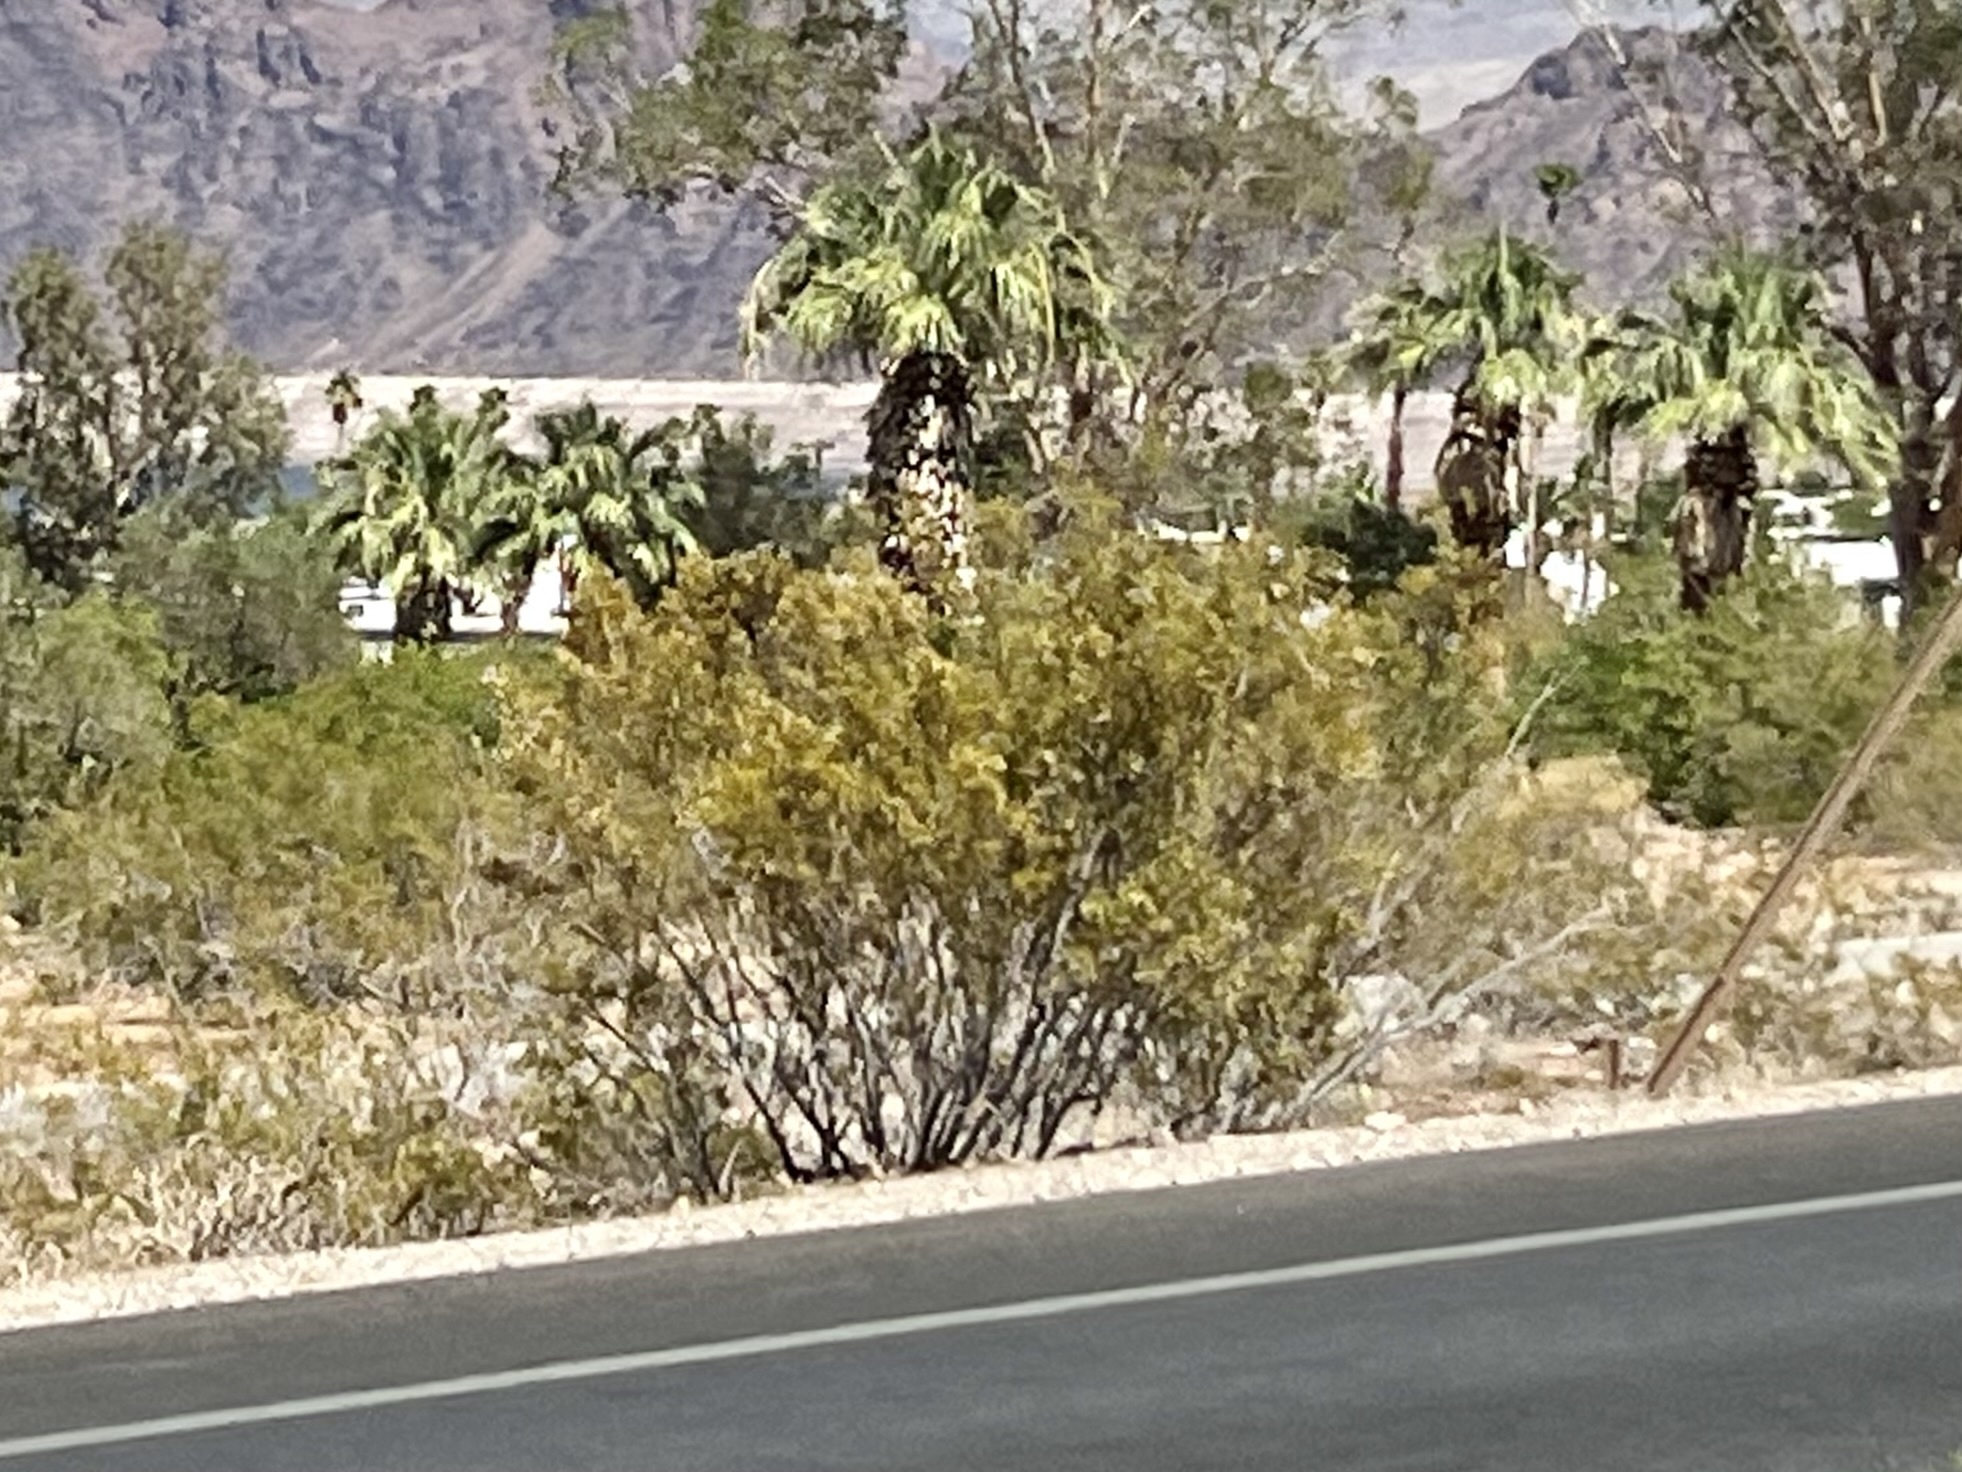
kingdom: Plantae
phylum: Tracheophyta
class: Magnoliopsida
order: Zygophyllales
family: Zygophyllaceae
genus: Larrea
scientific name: Larrea tridentata
